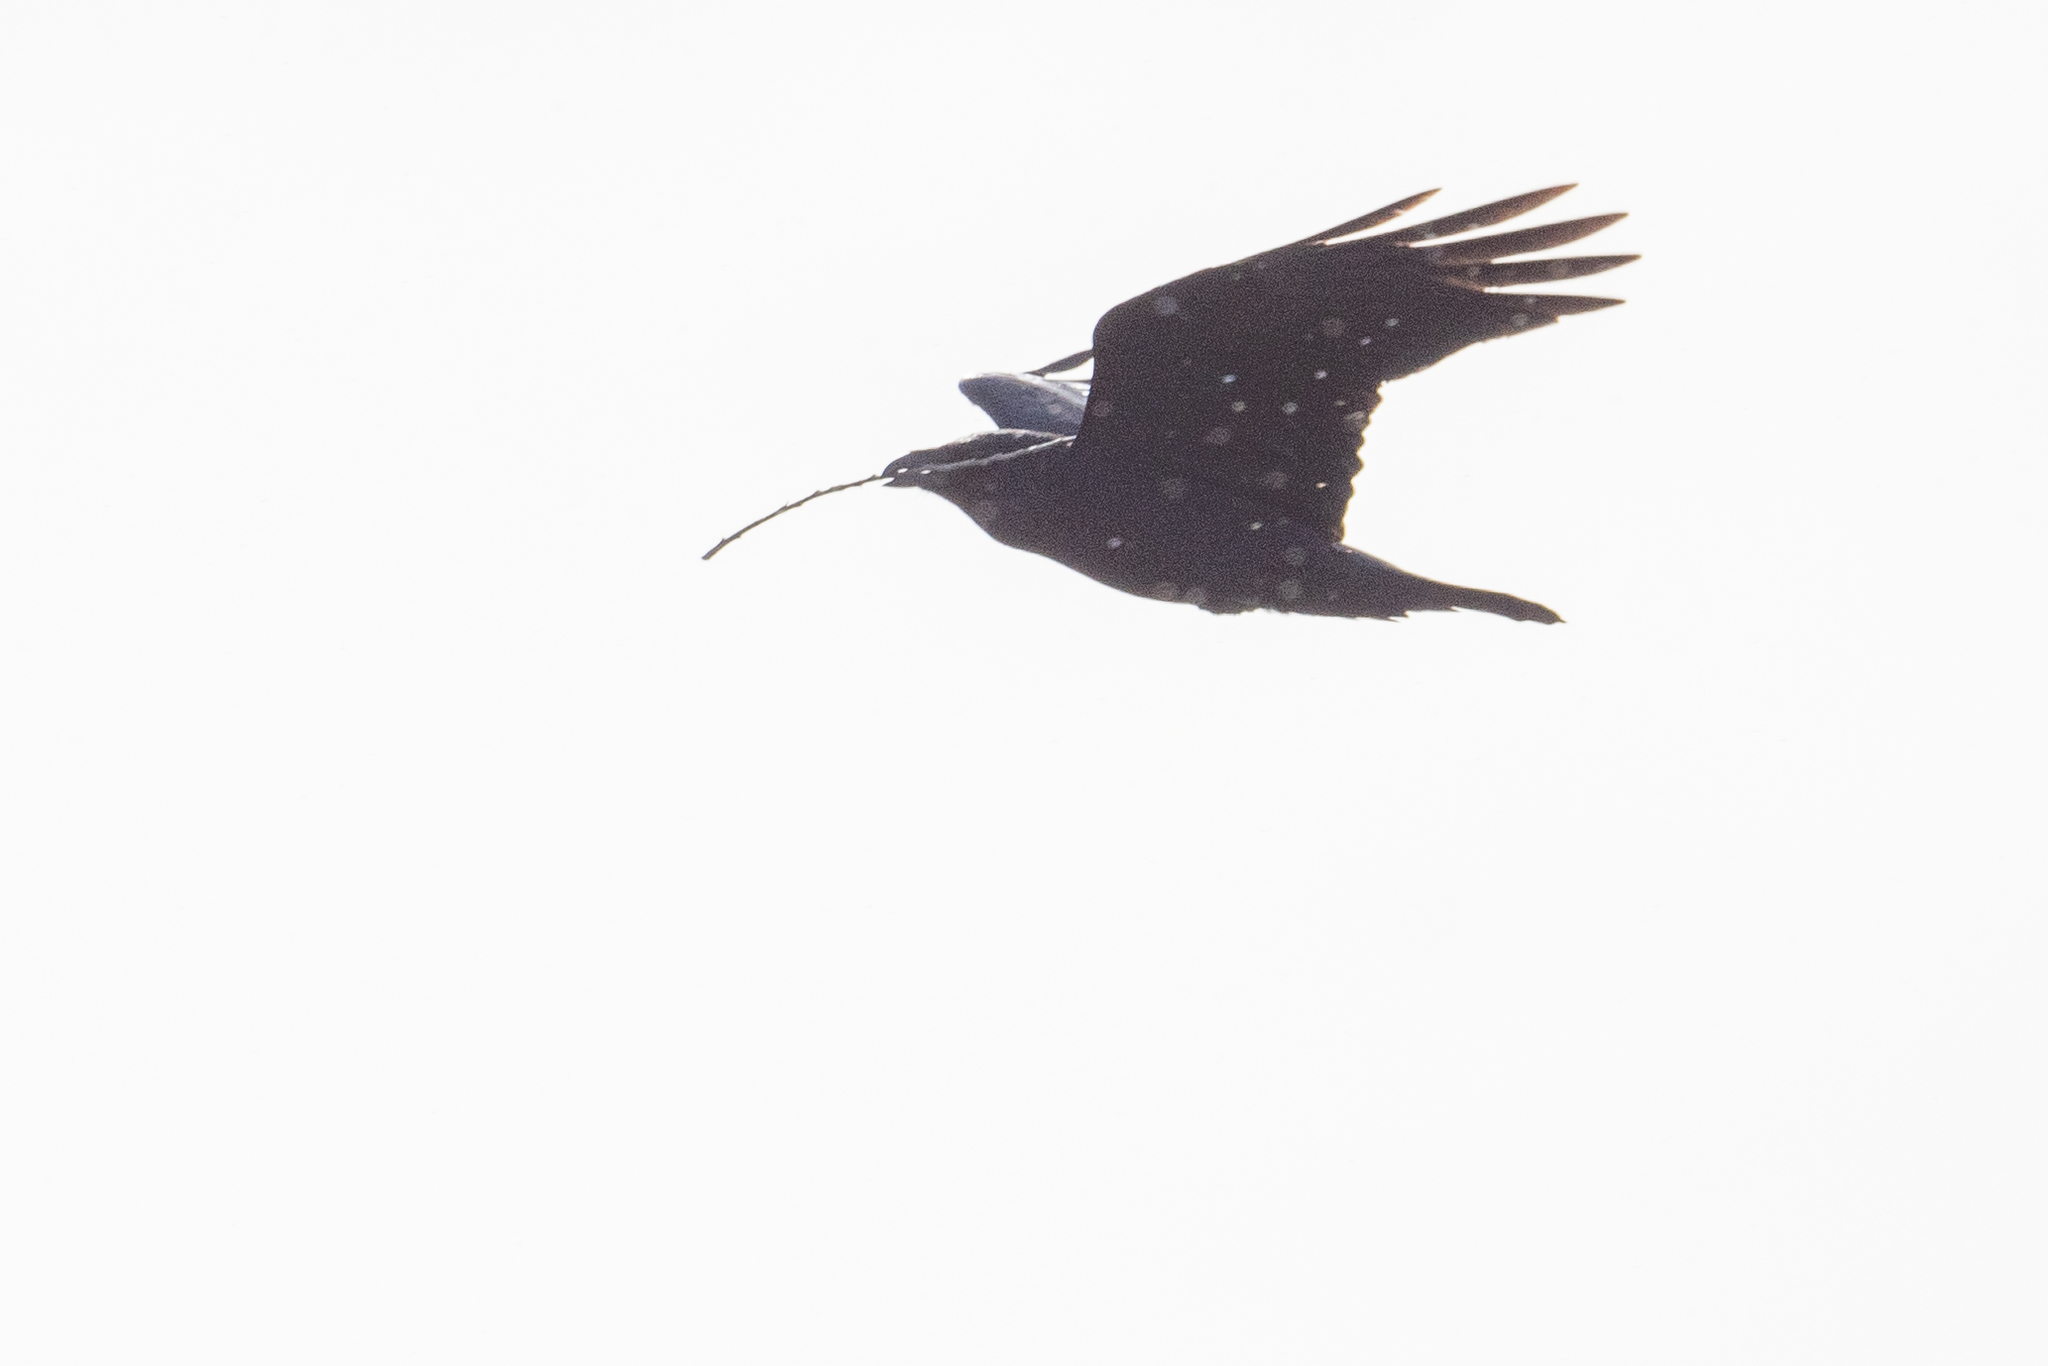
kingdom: Animalia
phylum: Chordata
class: Aves
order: Passeriformes
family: Corvidae
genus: Corvus
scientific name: Corvus corax
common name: Common raven
